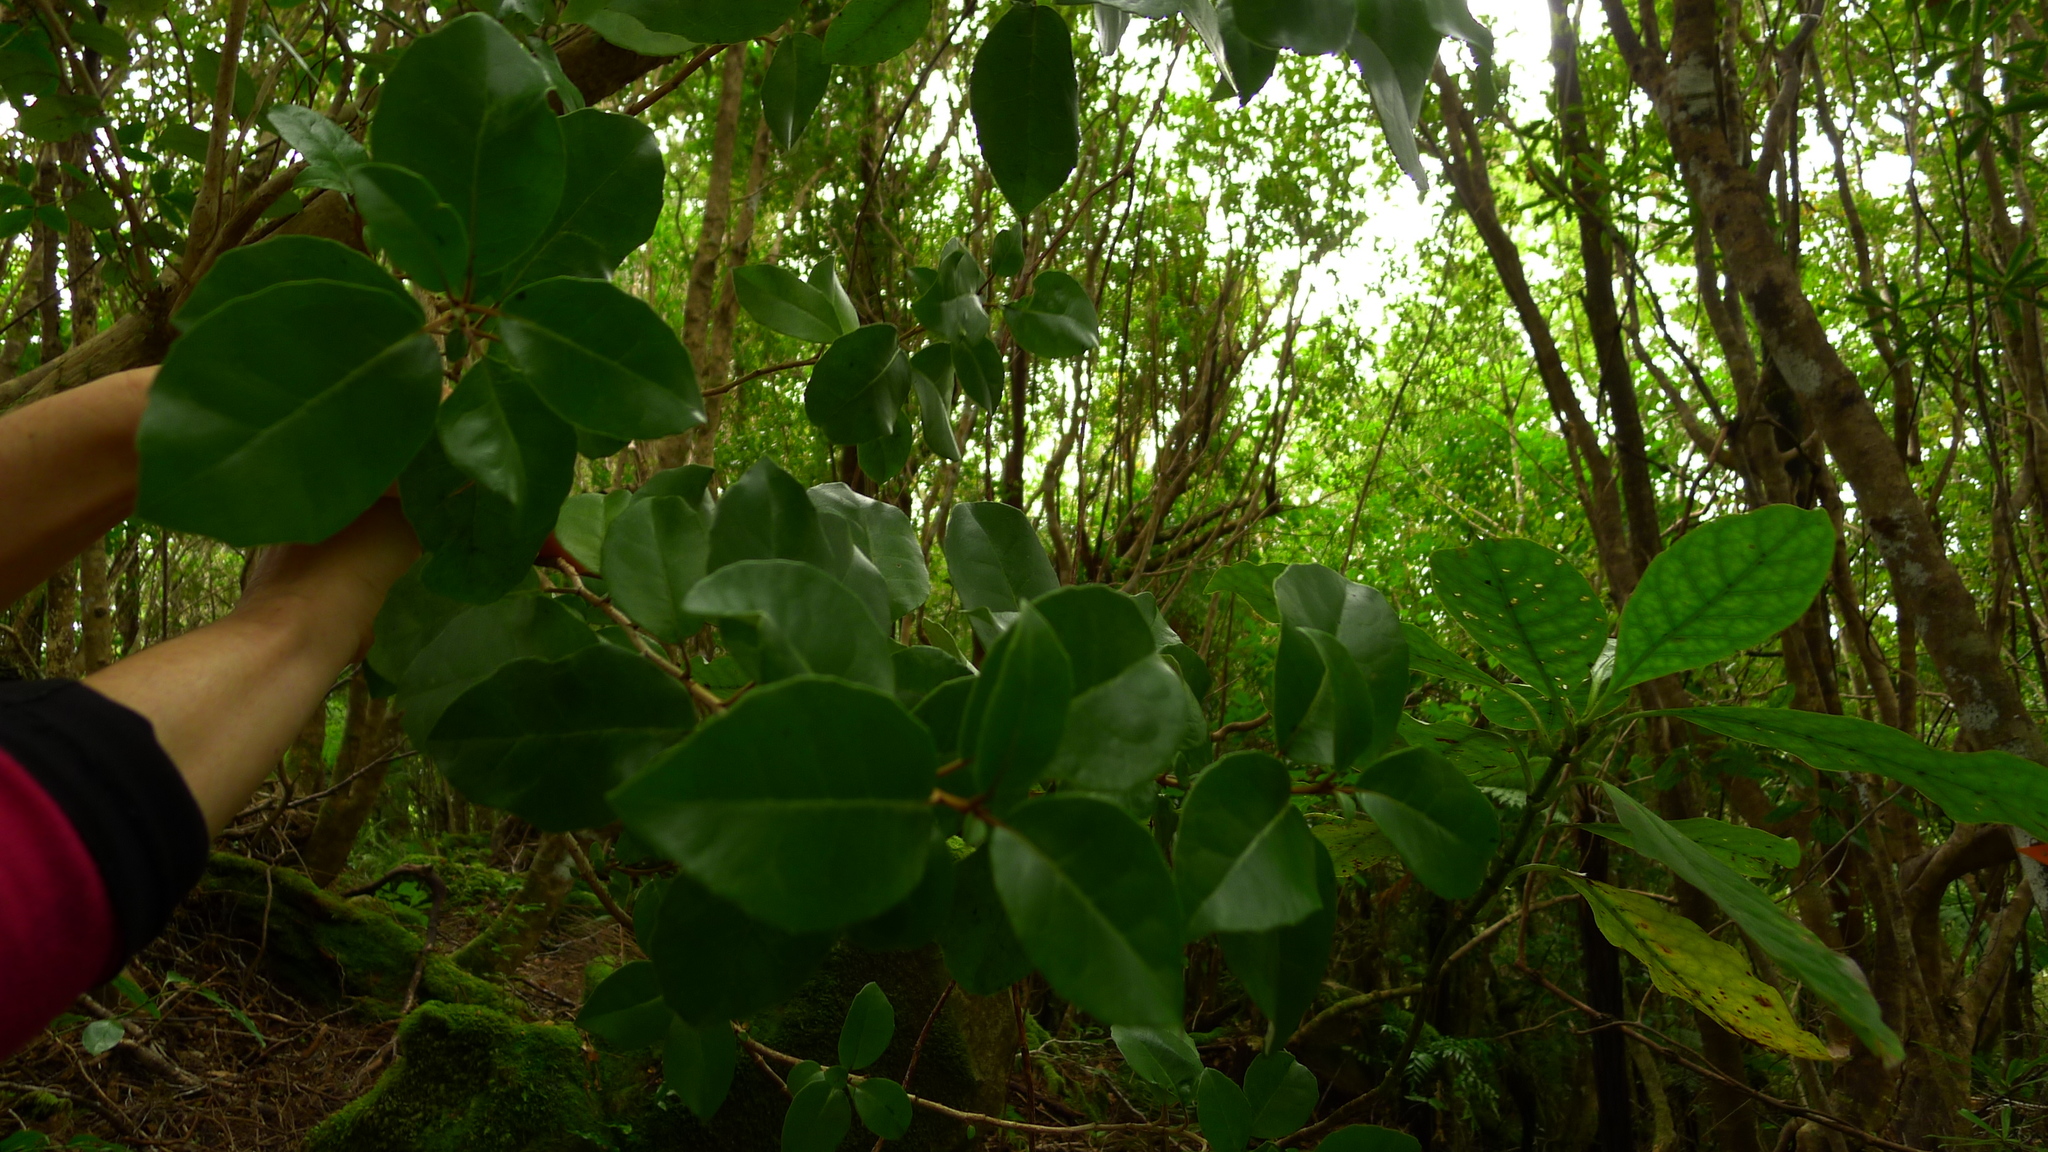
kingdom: Plantae
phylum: Tracheophyta
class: Magnoliopsida
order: Asterales
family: Asteraceae
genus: Olearia
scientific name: Olearia arborescens
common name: Glossy tree daisy
